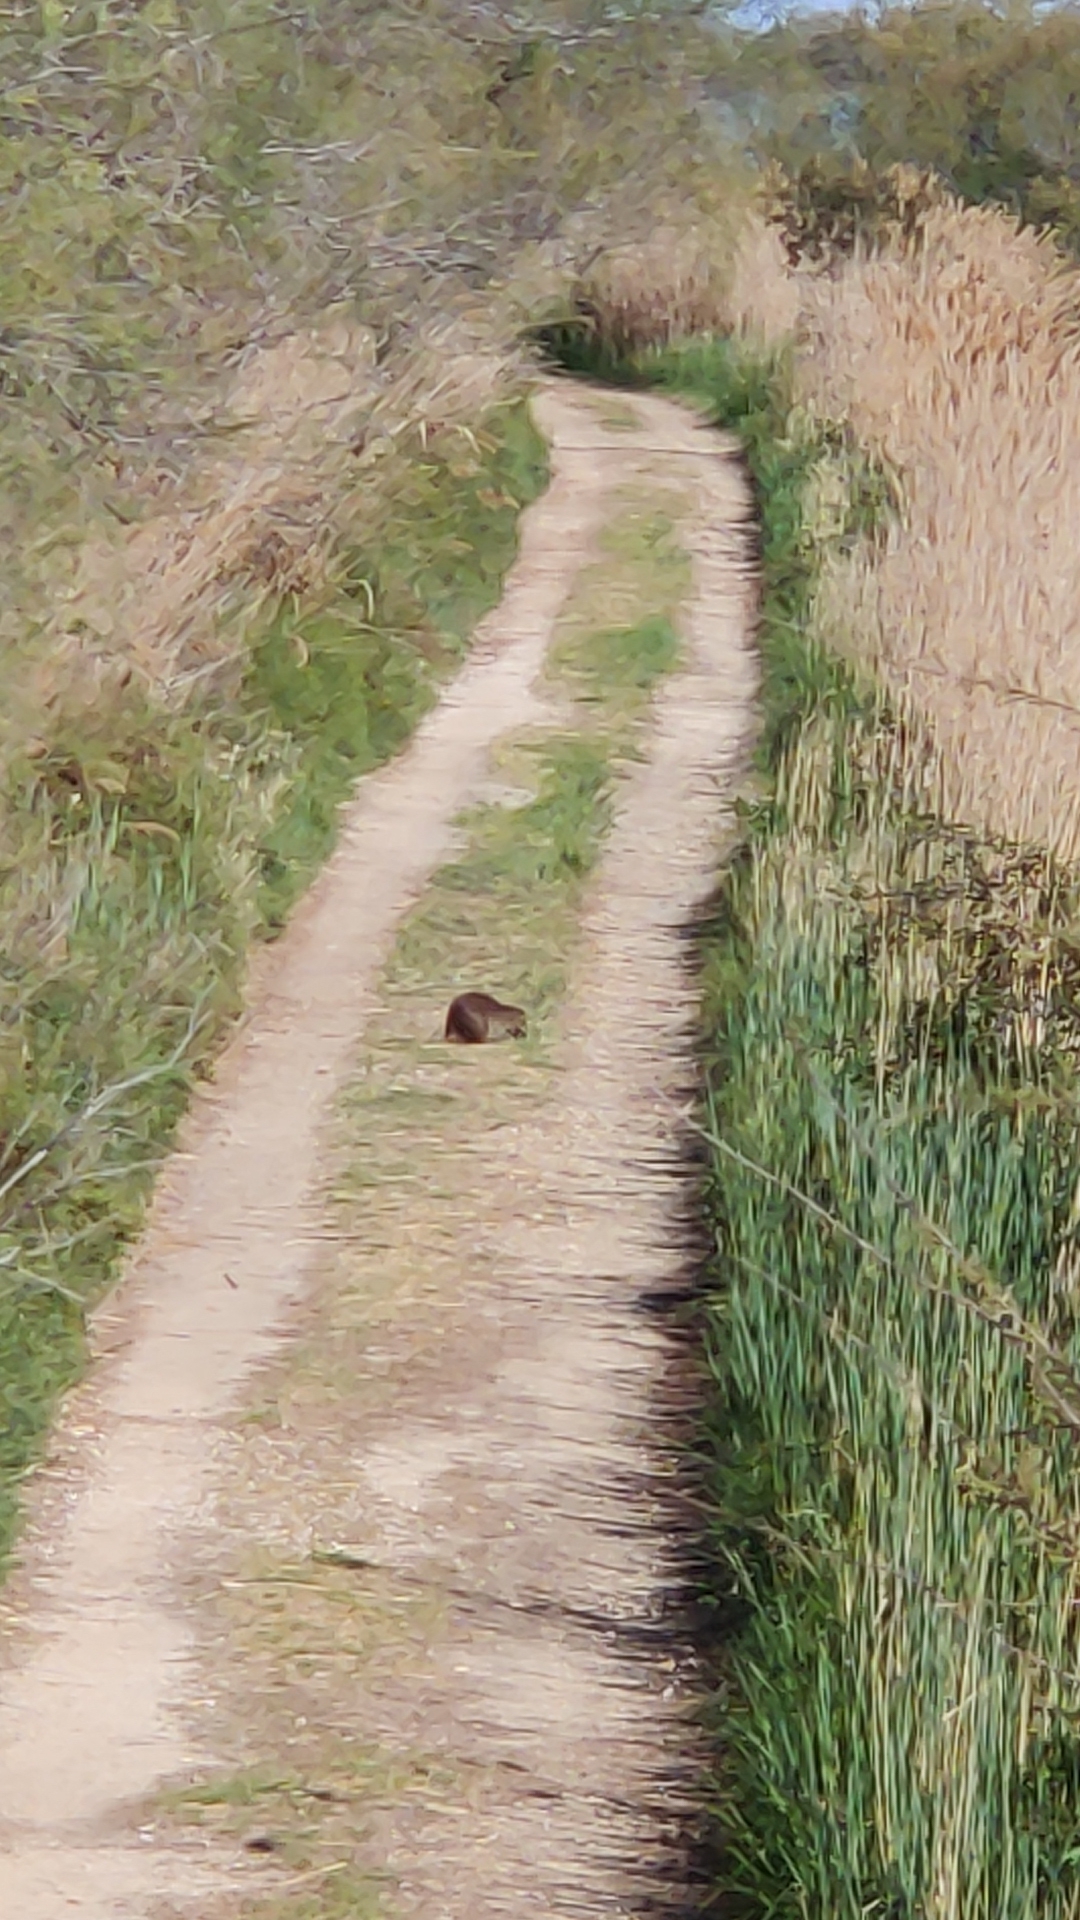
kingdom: Animalia
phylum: Chordata
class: Mammalia
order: Rodentia
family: Myocastoridae
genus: Myocastor
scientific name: Myocastor coypus
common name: Coypu
